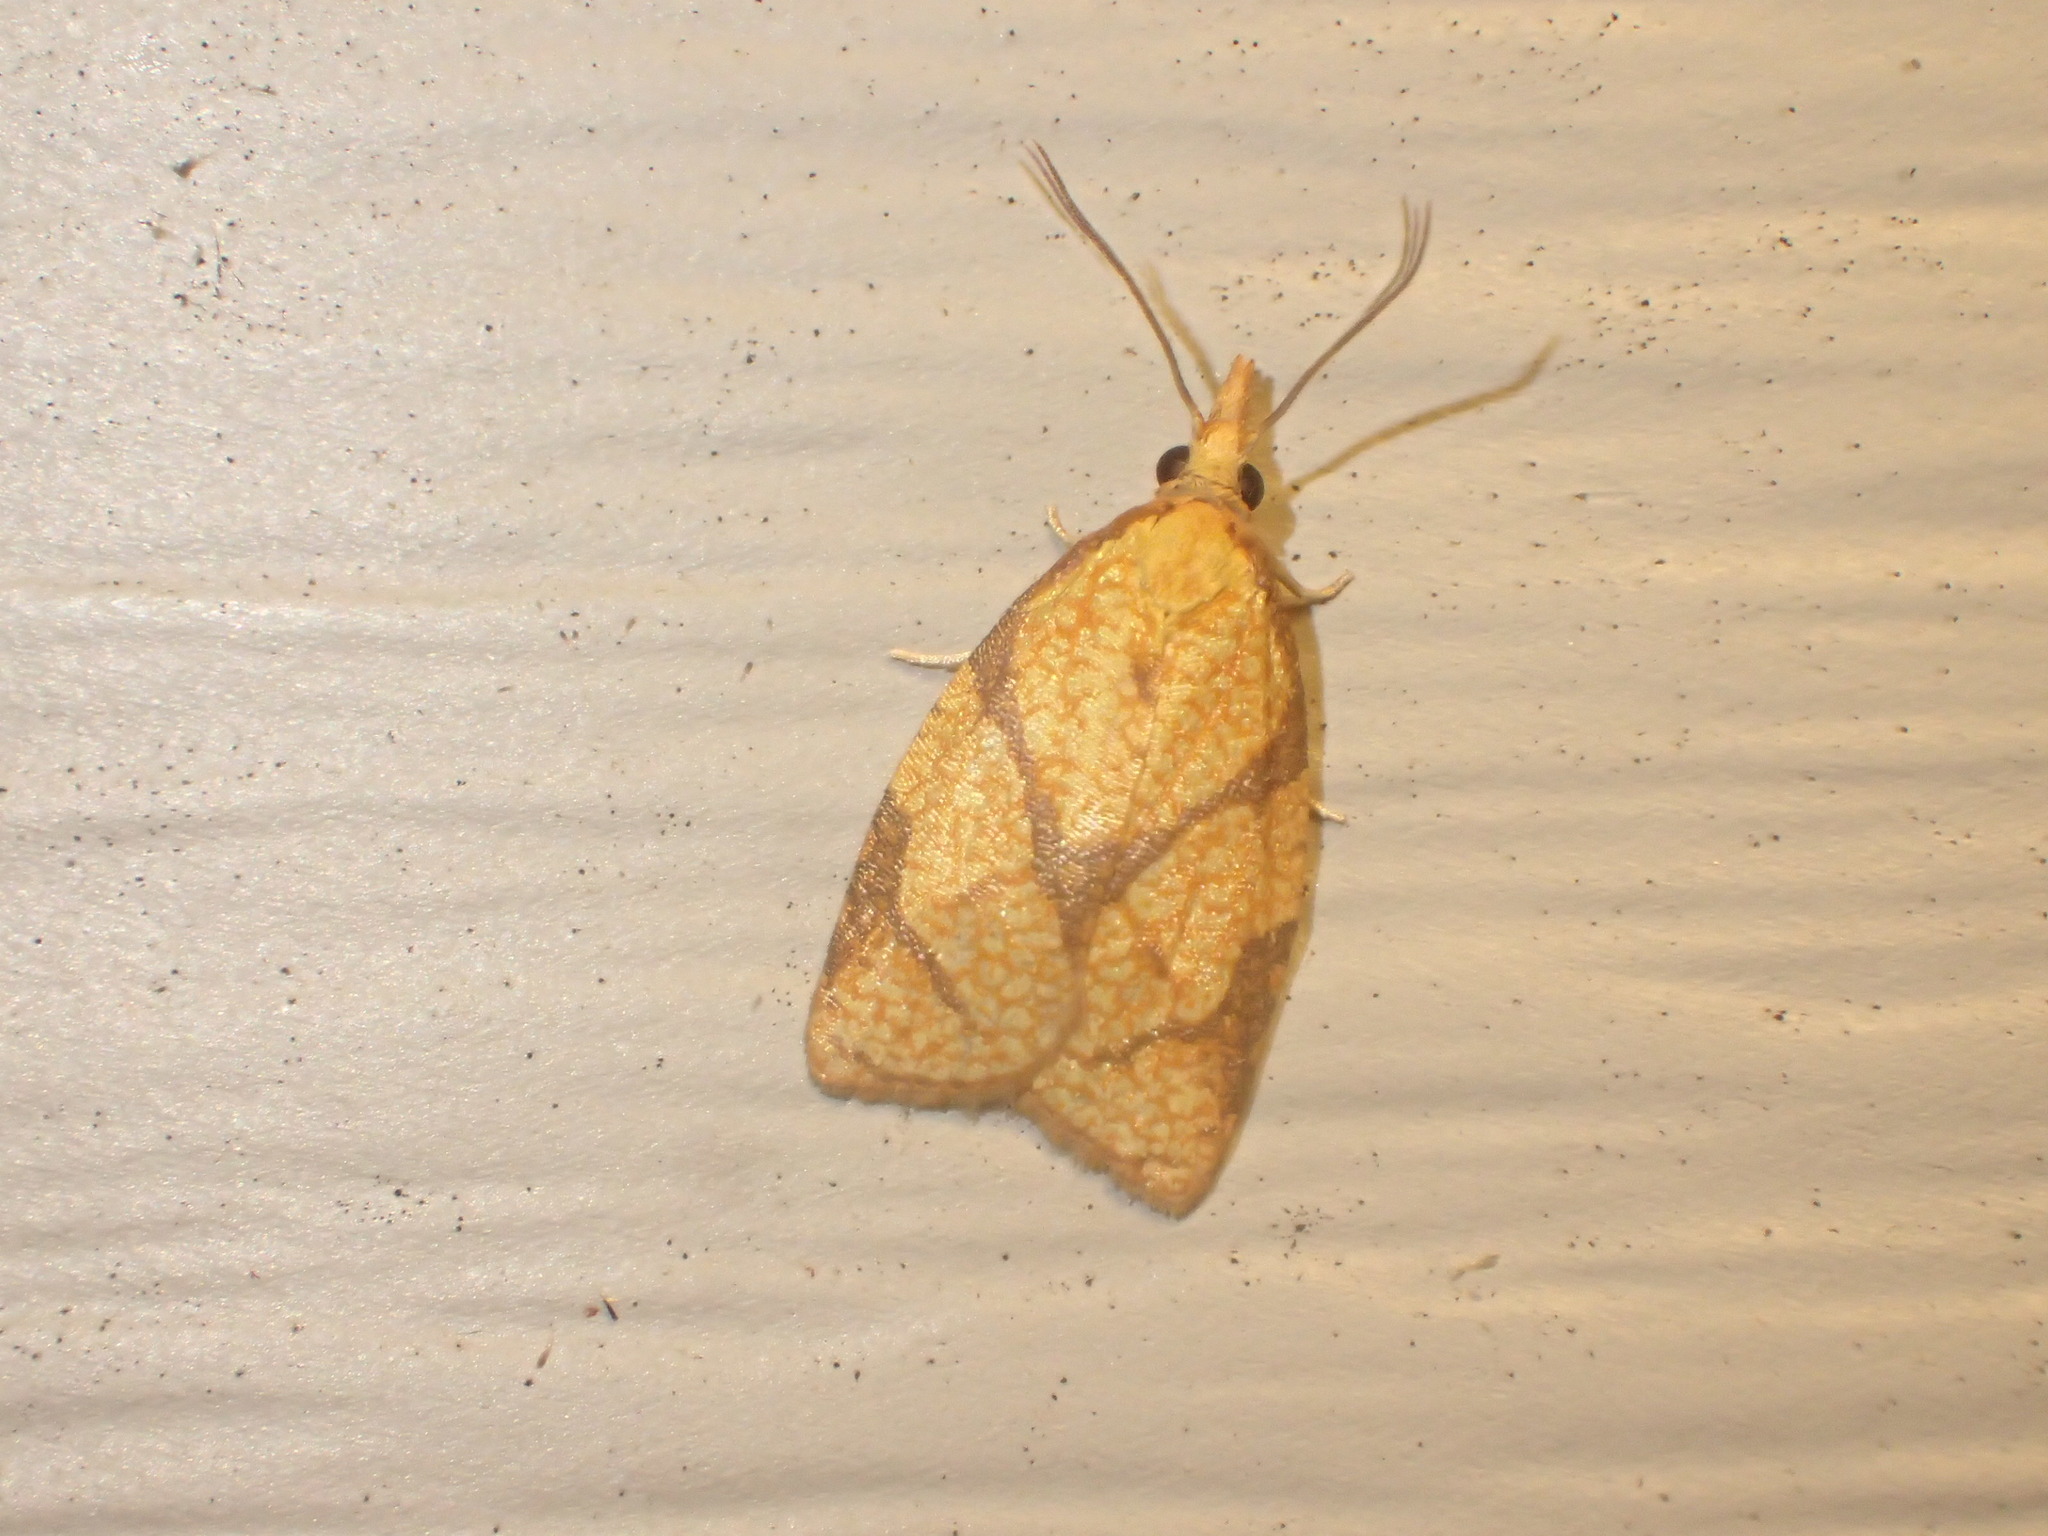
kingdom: Animalia
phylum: Arthropoda
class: Insecta
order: Lepidoptera
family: Tortricidae
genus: Cenopis
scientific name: Cenopis reticulatana
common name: Reticulated fruitworm moth
